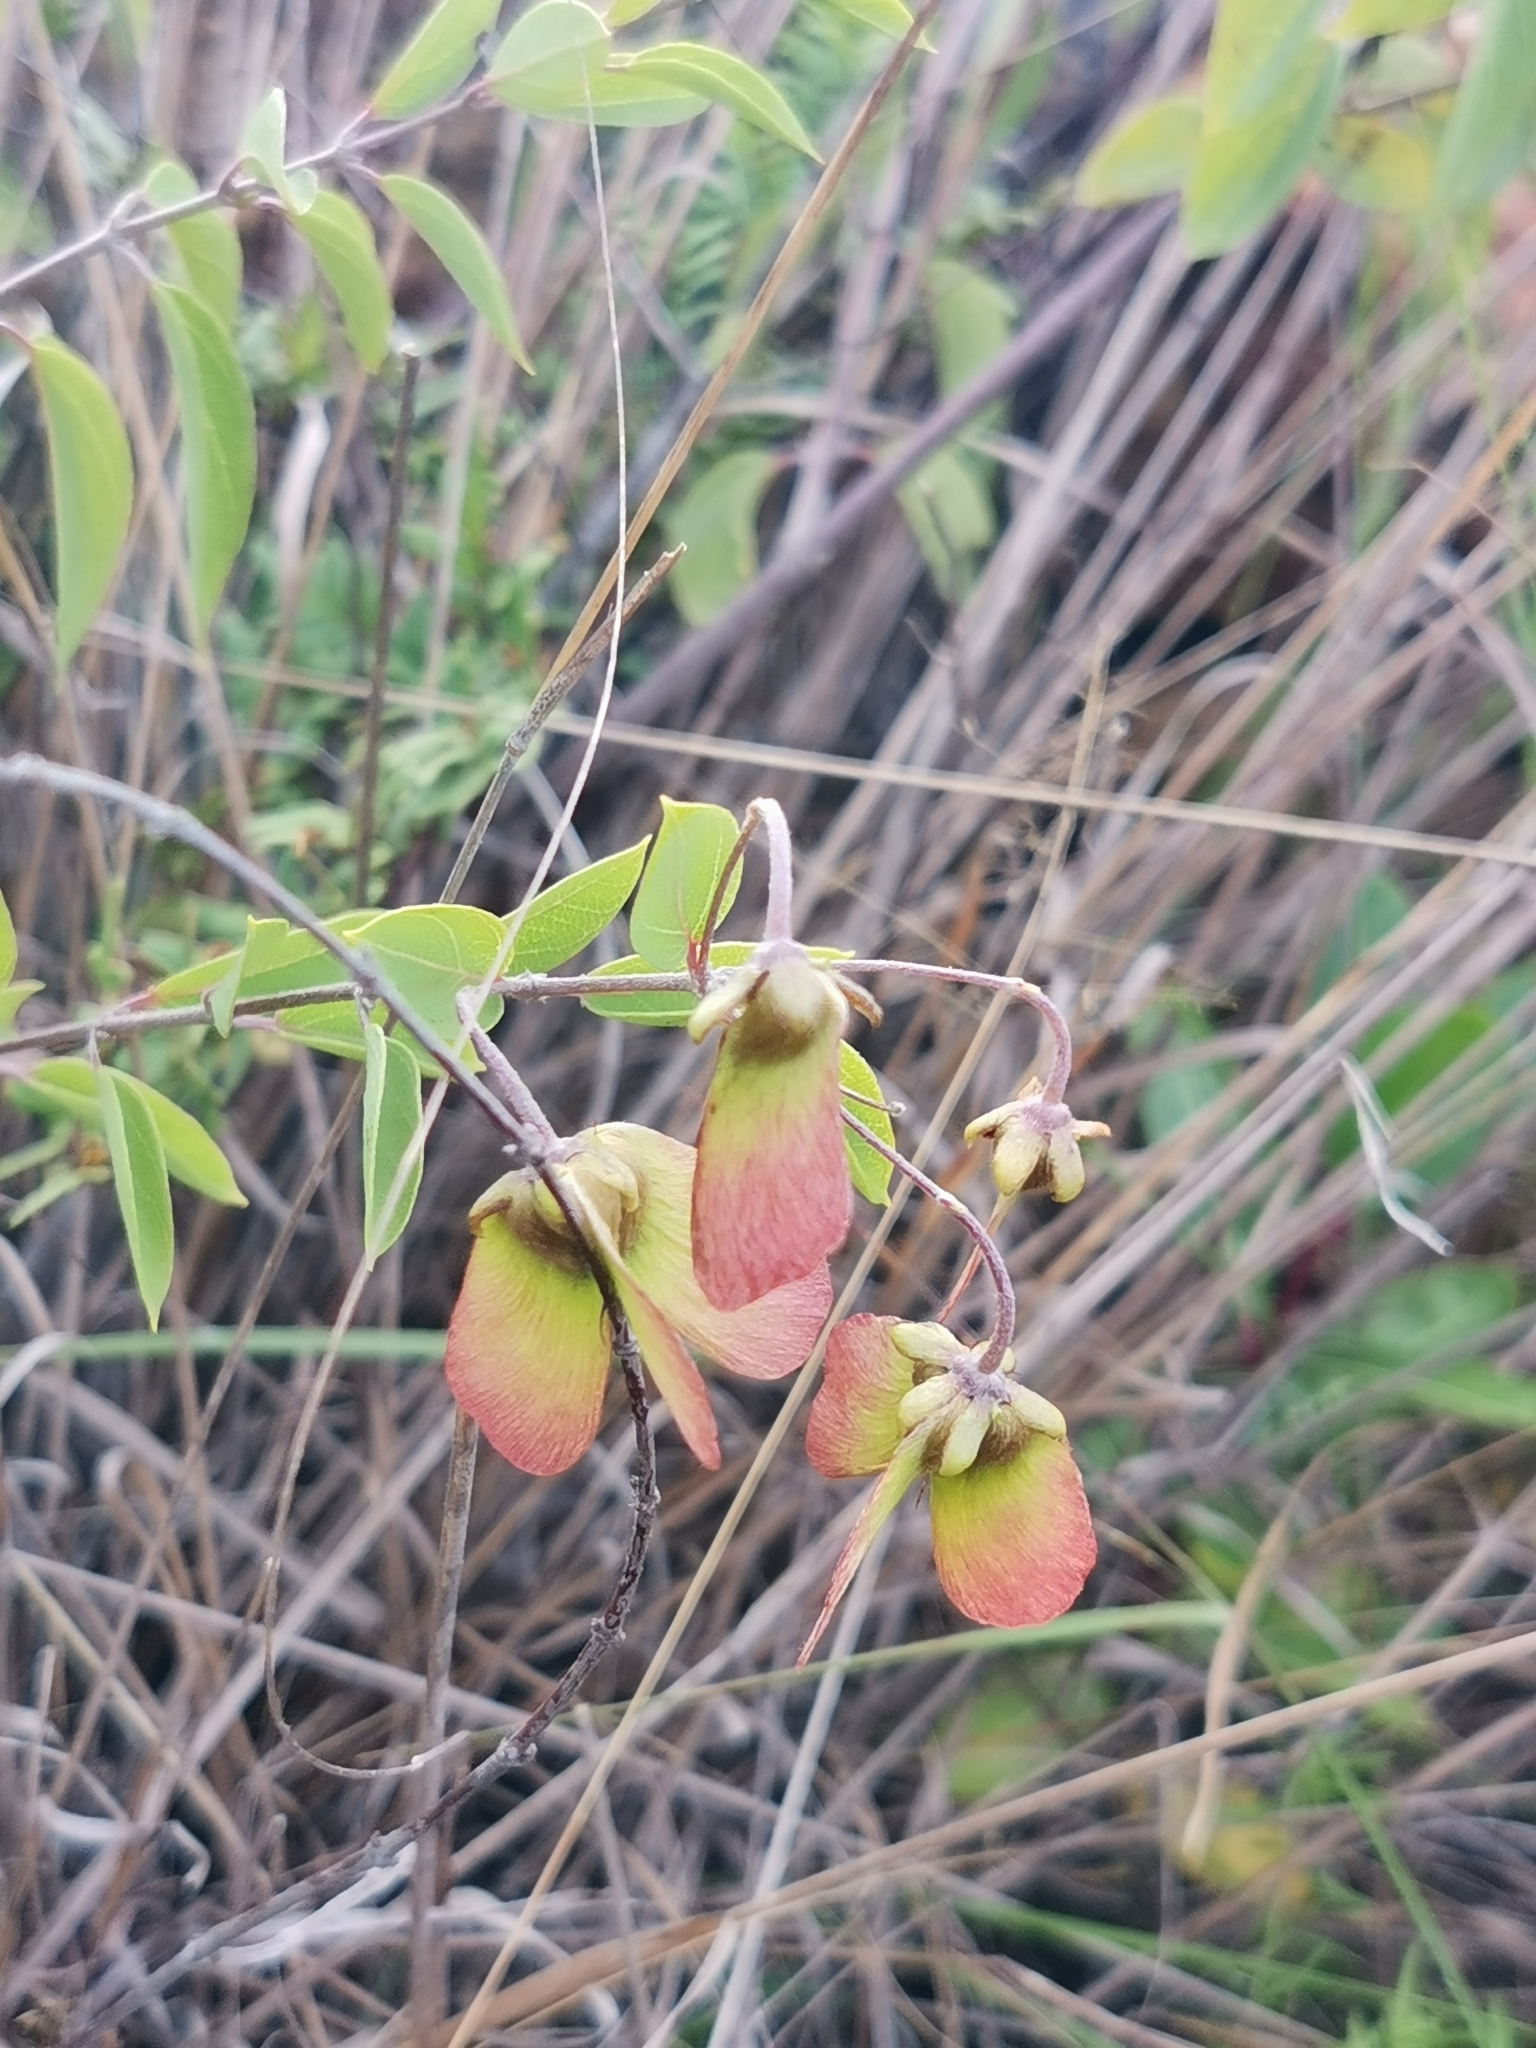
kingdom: Plantae
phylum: Tracheophyta
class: Magnoliopsida
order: Malpighiales
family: Malpighiaceae
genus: Sphedamnocarpus
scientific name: Sphedamnocarpus pruriens
